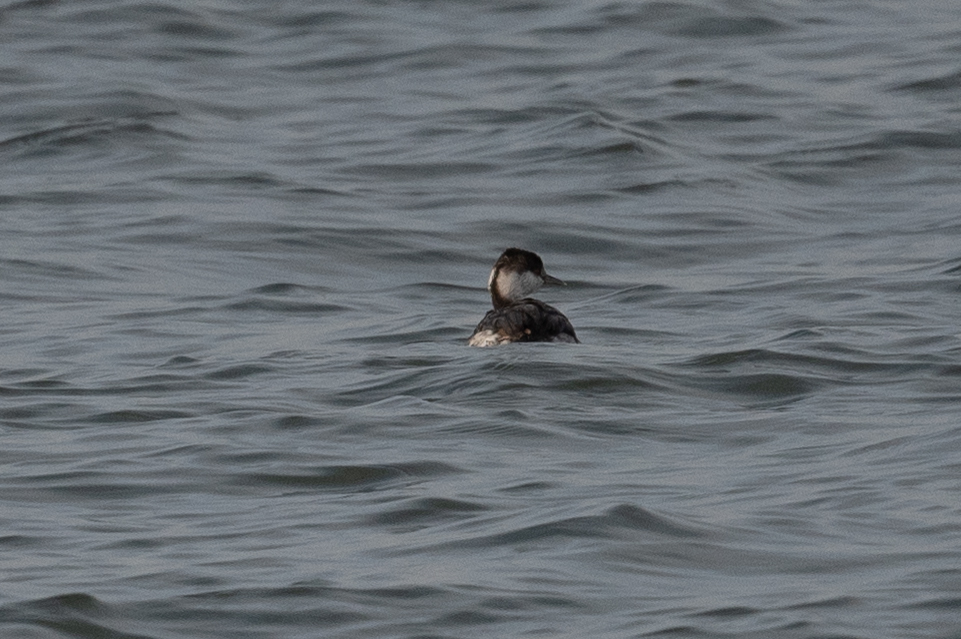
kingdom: Animalia
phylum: Chordata
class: Aves
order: Podicipediformes
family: Podicipedidae
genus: Podiceps
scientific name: Podiceps auritus
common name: Horned grebe
